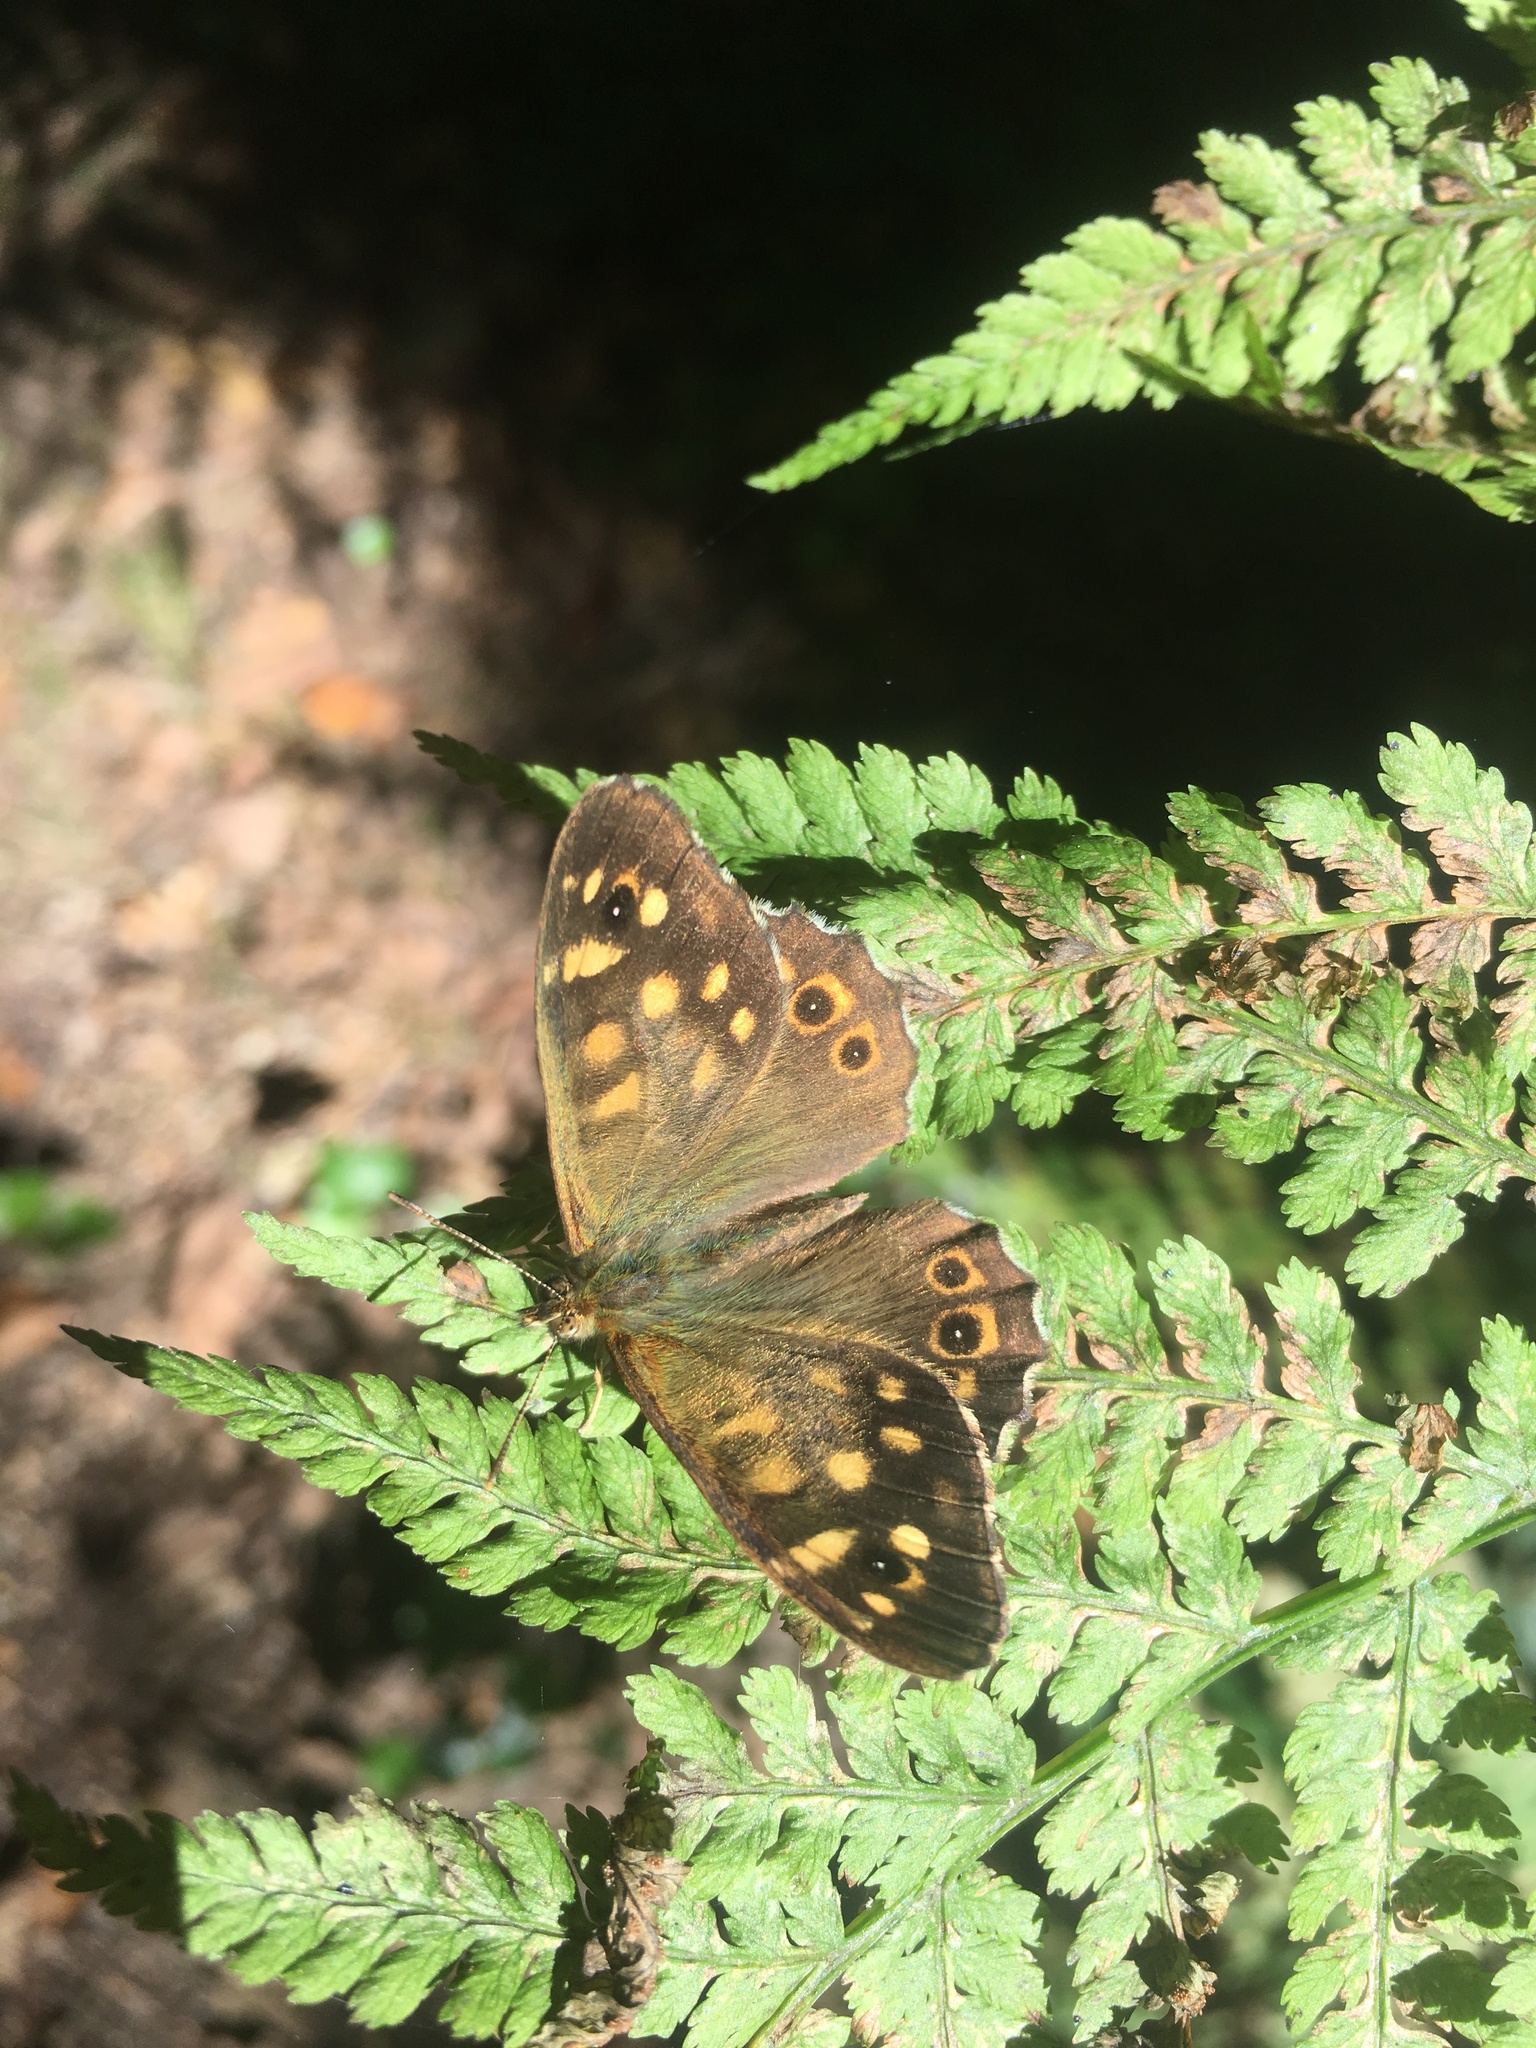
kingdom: Animalia
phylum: Arthropoda
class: Insecta
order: Lepidoptera
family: Nymphalidae
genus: Pararge
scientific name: Pararge aegeria
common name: Speckled wood
